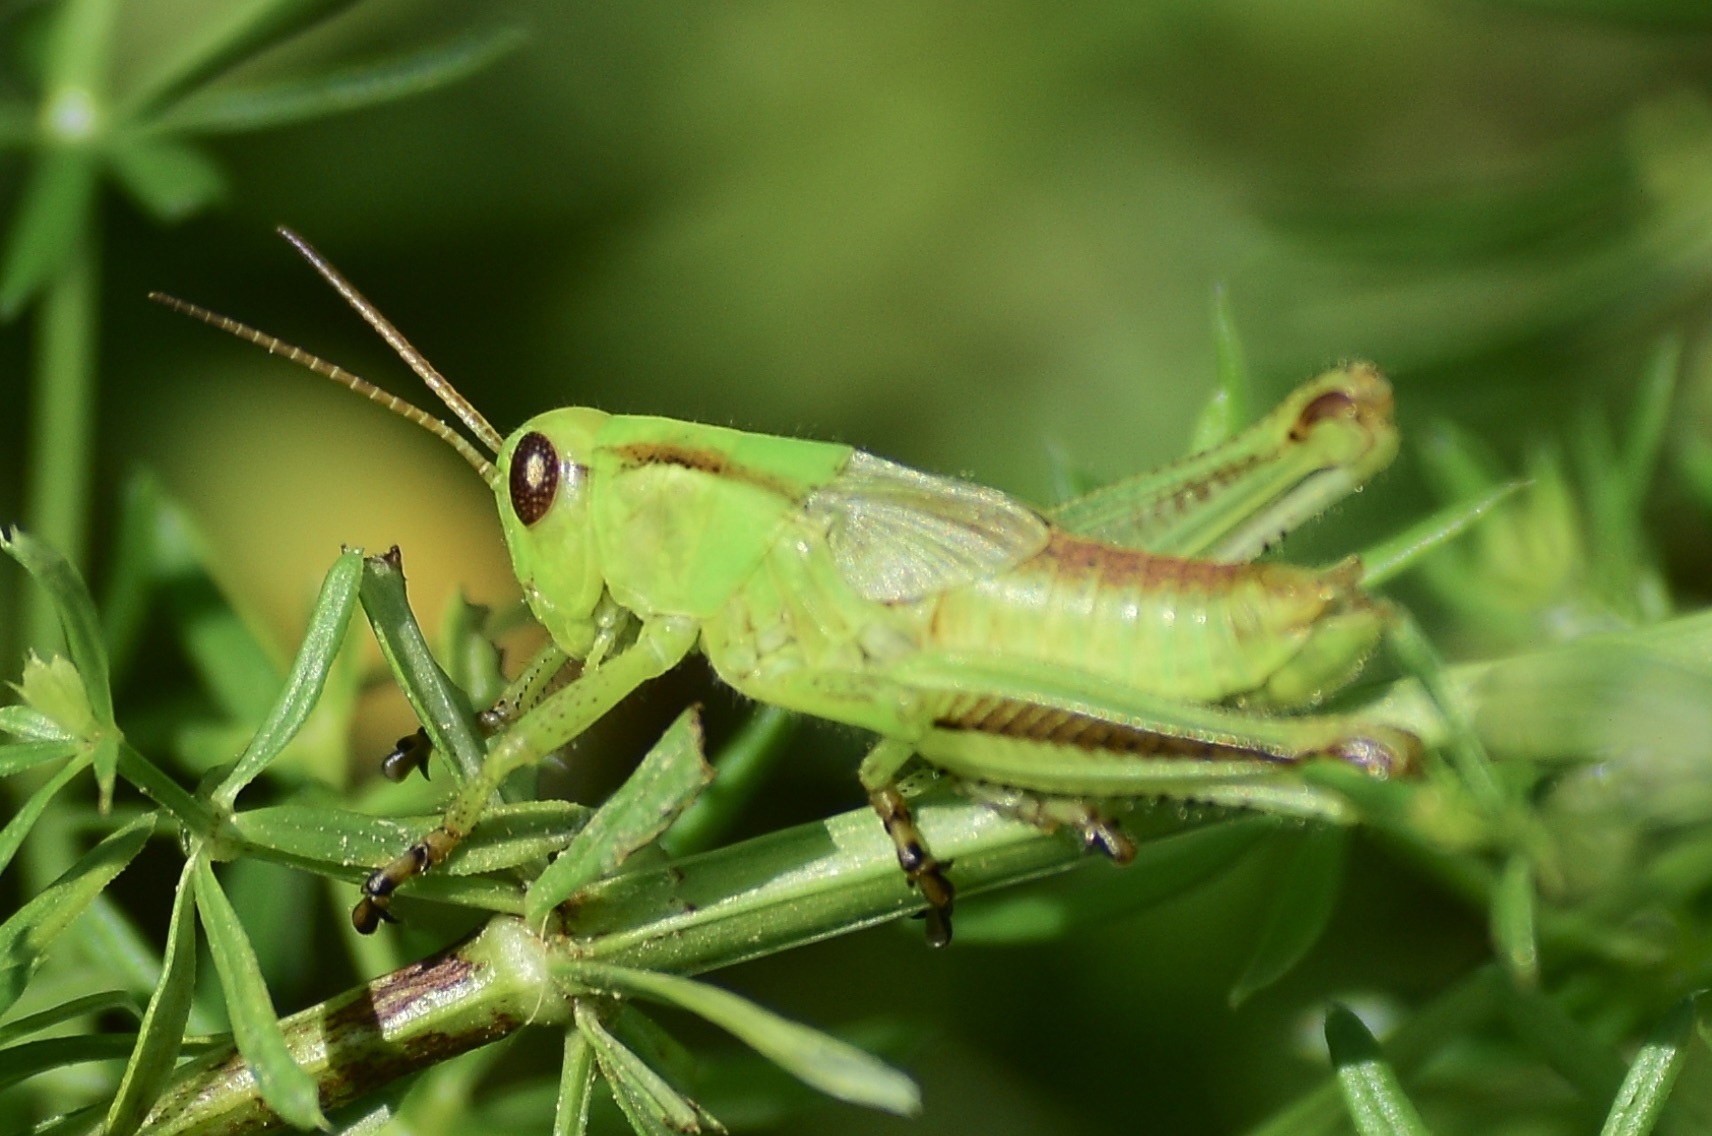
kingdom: Animalia
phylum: Arthropoda
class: Insecta
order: Orthoptera
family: Acrididae
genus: Melanoplus
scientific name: Melanoplus bivittatus
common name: Two-striped grasshopper
